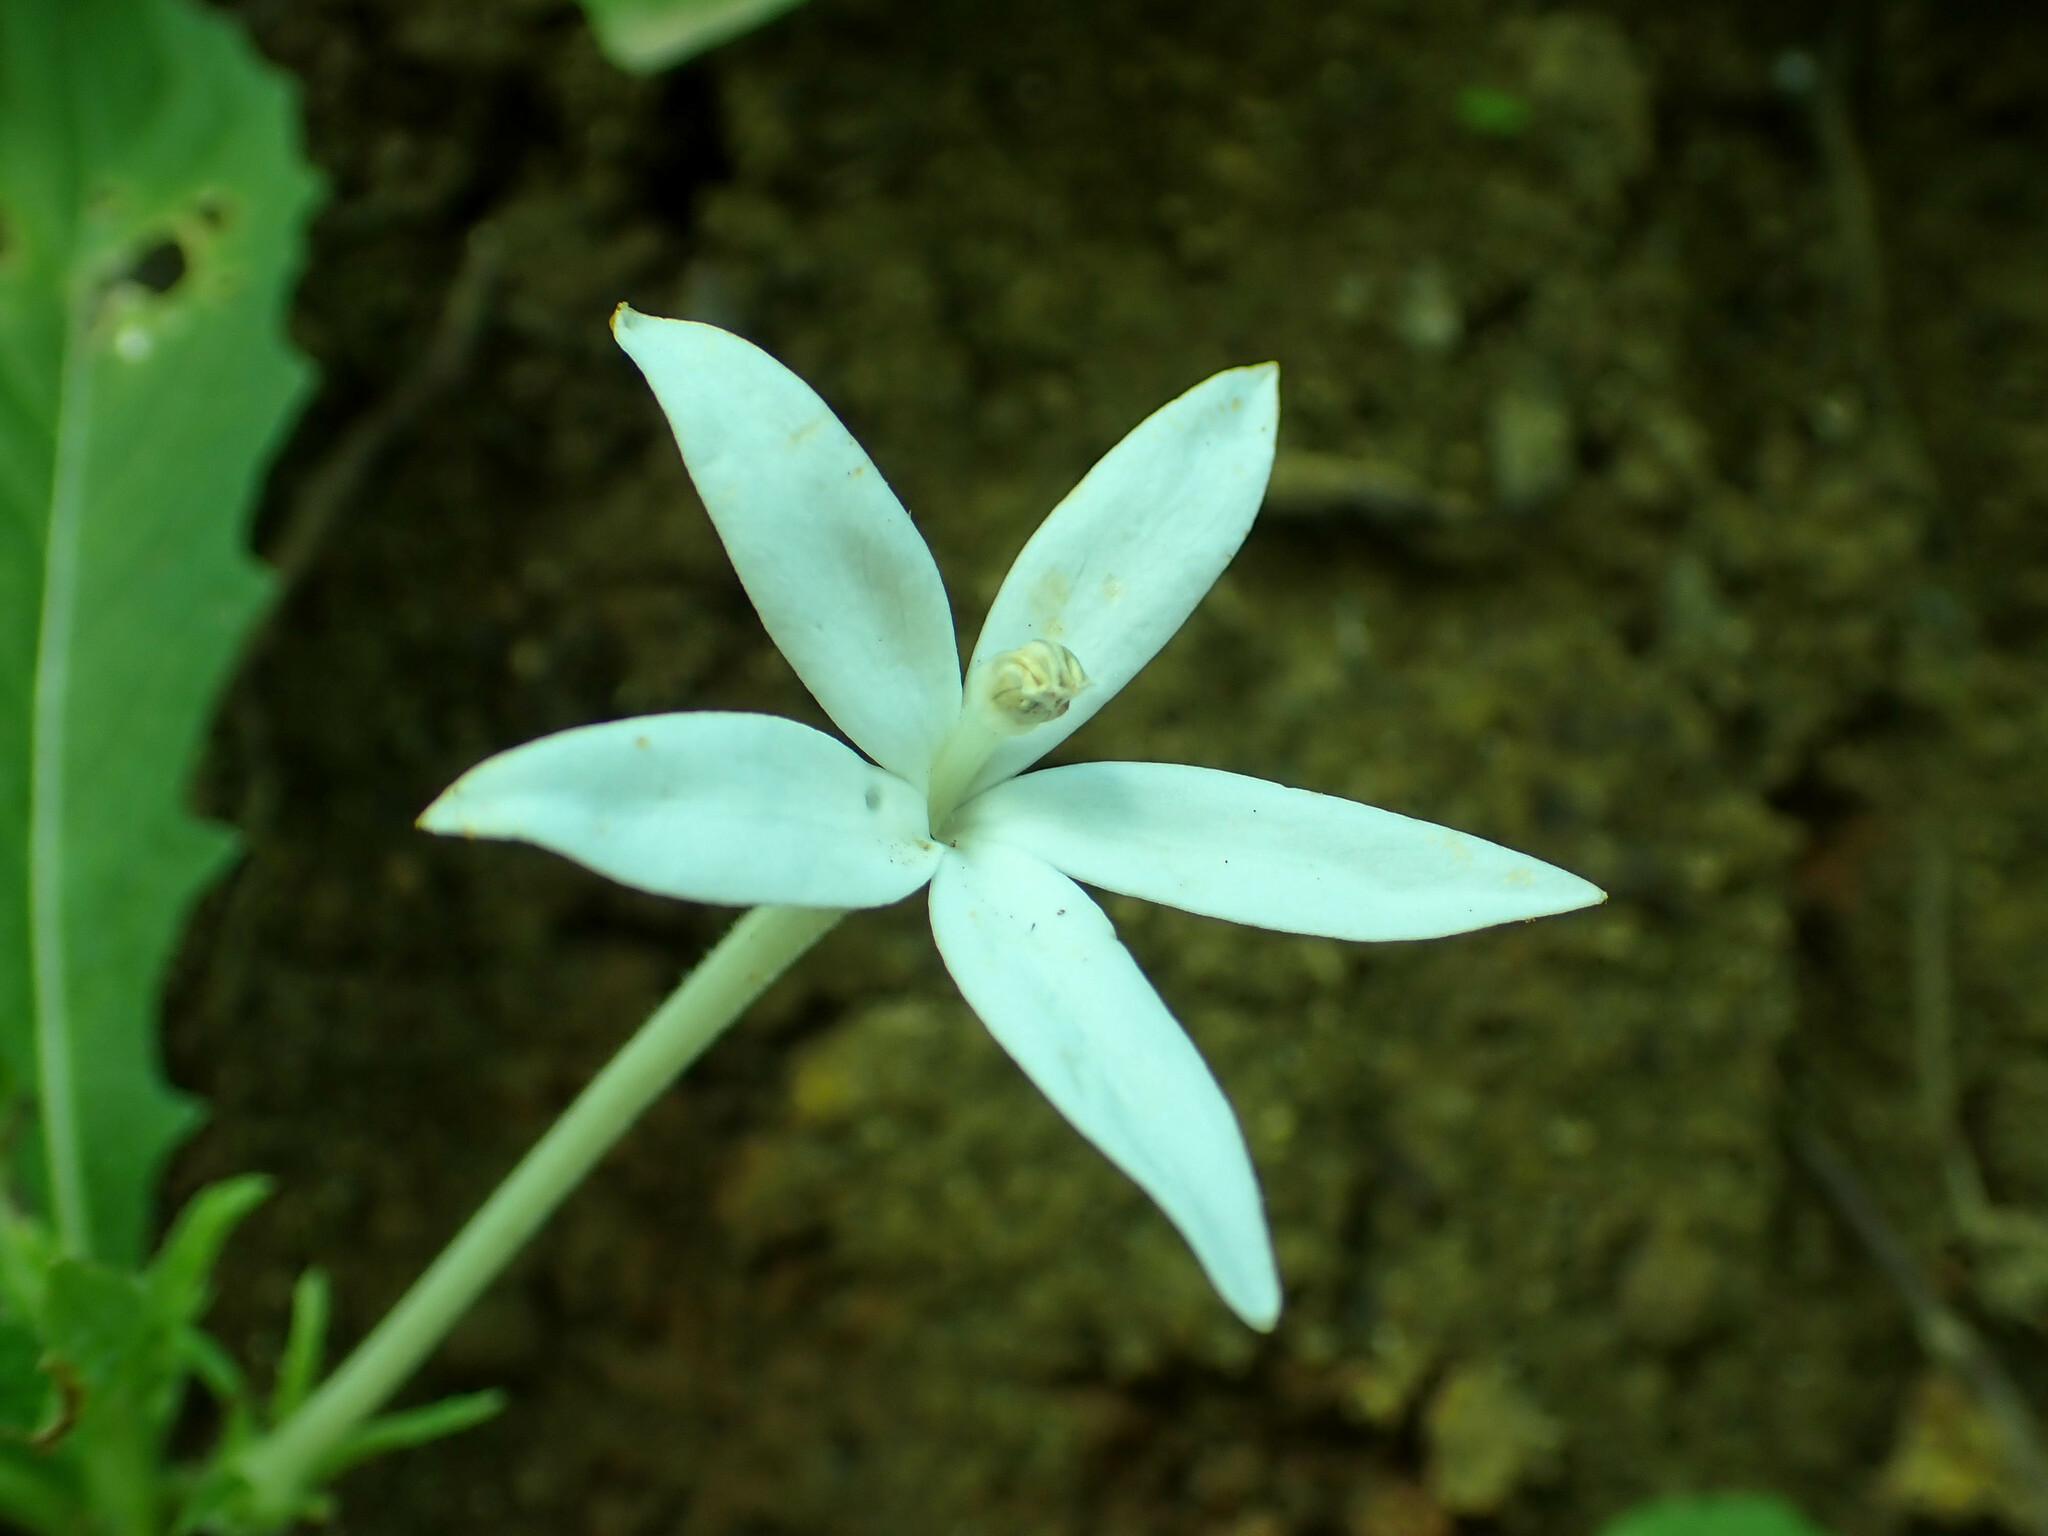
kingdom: Plantae
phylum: Tracheophyta
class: Magnoliopsida
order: Asterales
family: Campanulaceae
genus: Hippobroma
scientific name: Hippobroma longiflora
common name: Madamfate
